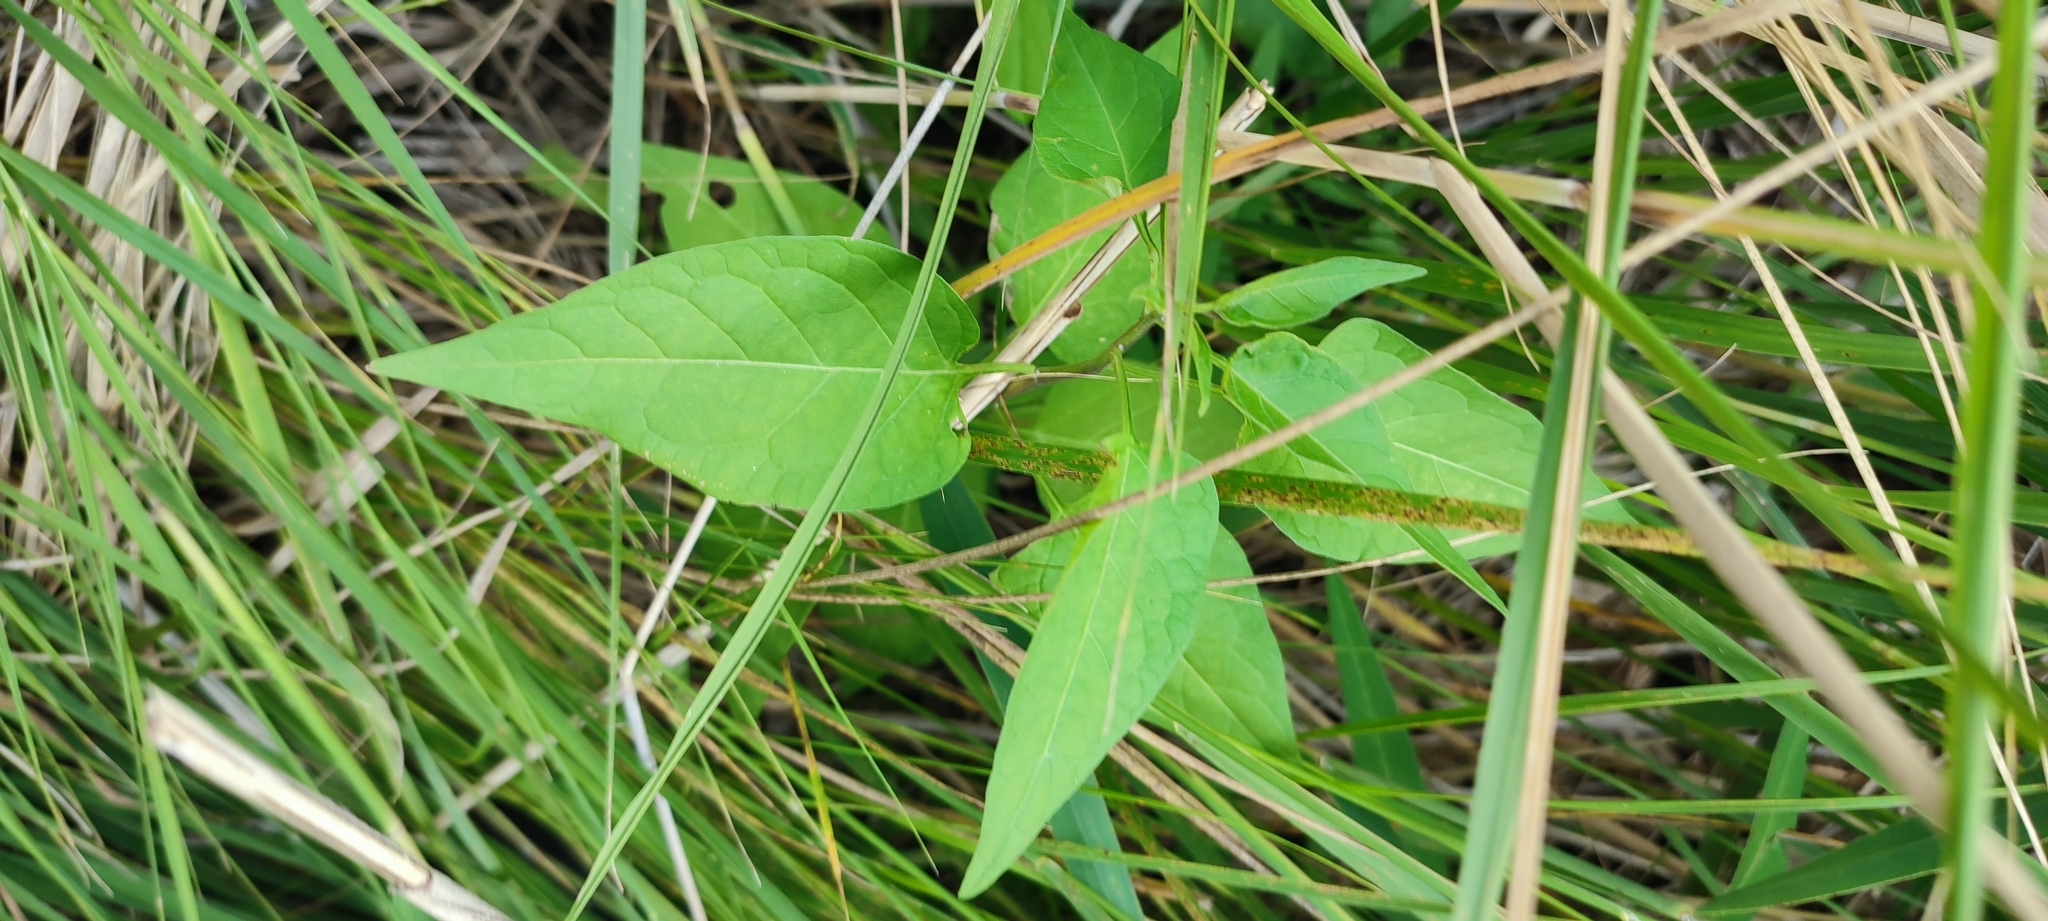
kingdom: Plantae
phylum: Tracheophyta
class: Magnoliopsida
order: Solanales
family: Solanaceae
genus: Solanum
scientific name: Solanum dulcamara
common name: Climbing nightshade
